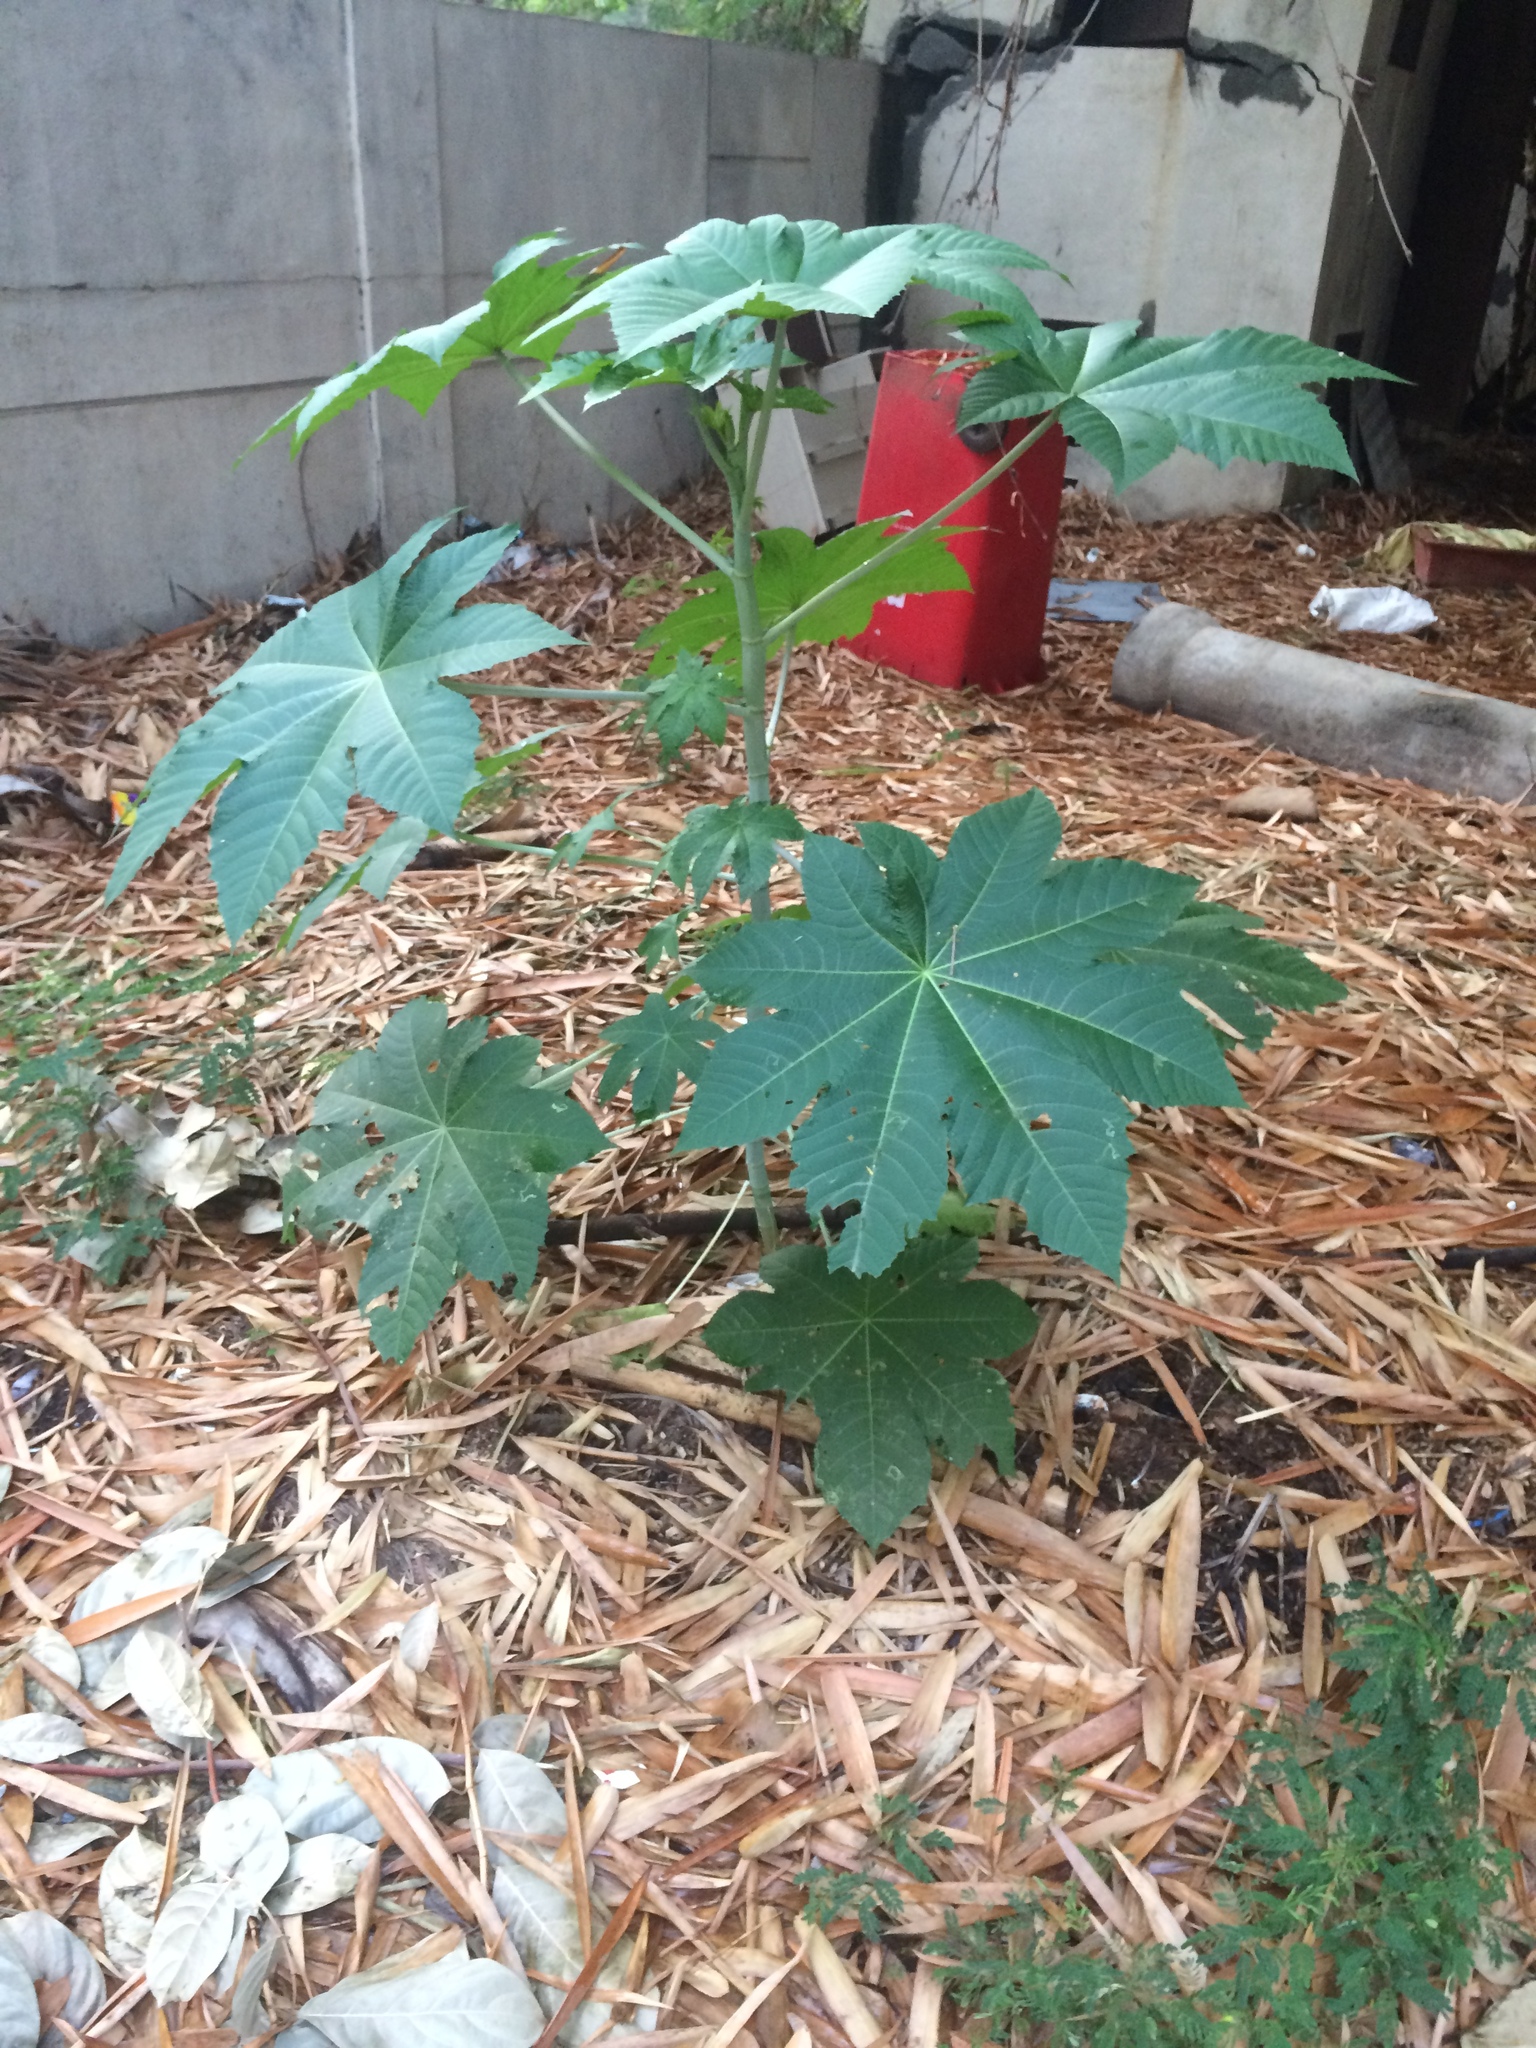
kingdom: Plantae
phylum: Tracheophyta
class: Magnoliopsida
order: Malpighiales
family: Euphorbiaceae
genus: Ricinus
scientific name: Ricinus communis
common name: Castor-oil-plant
